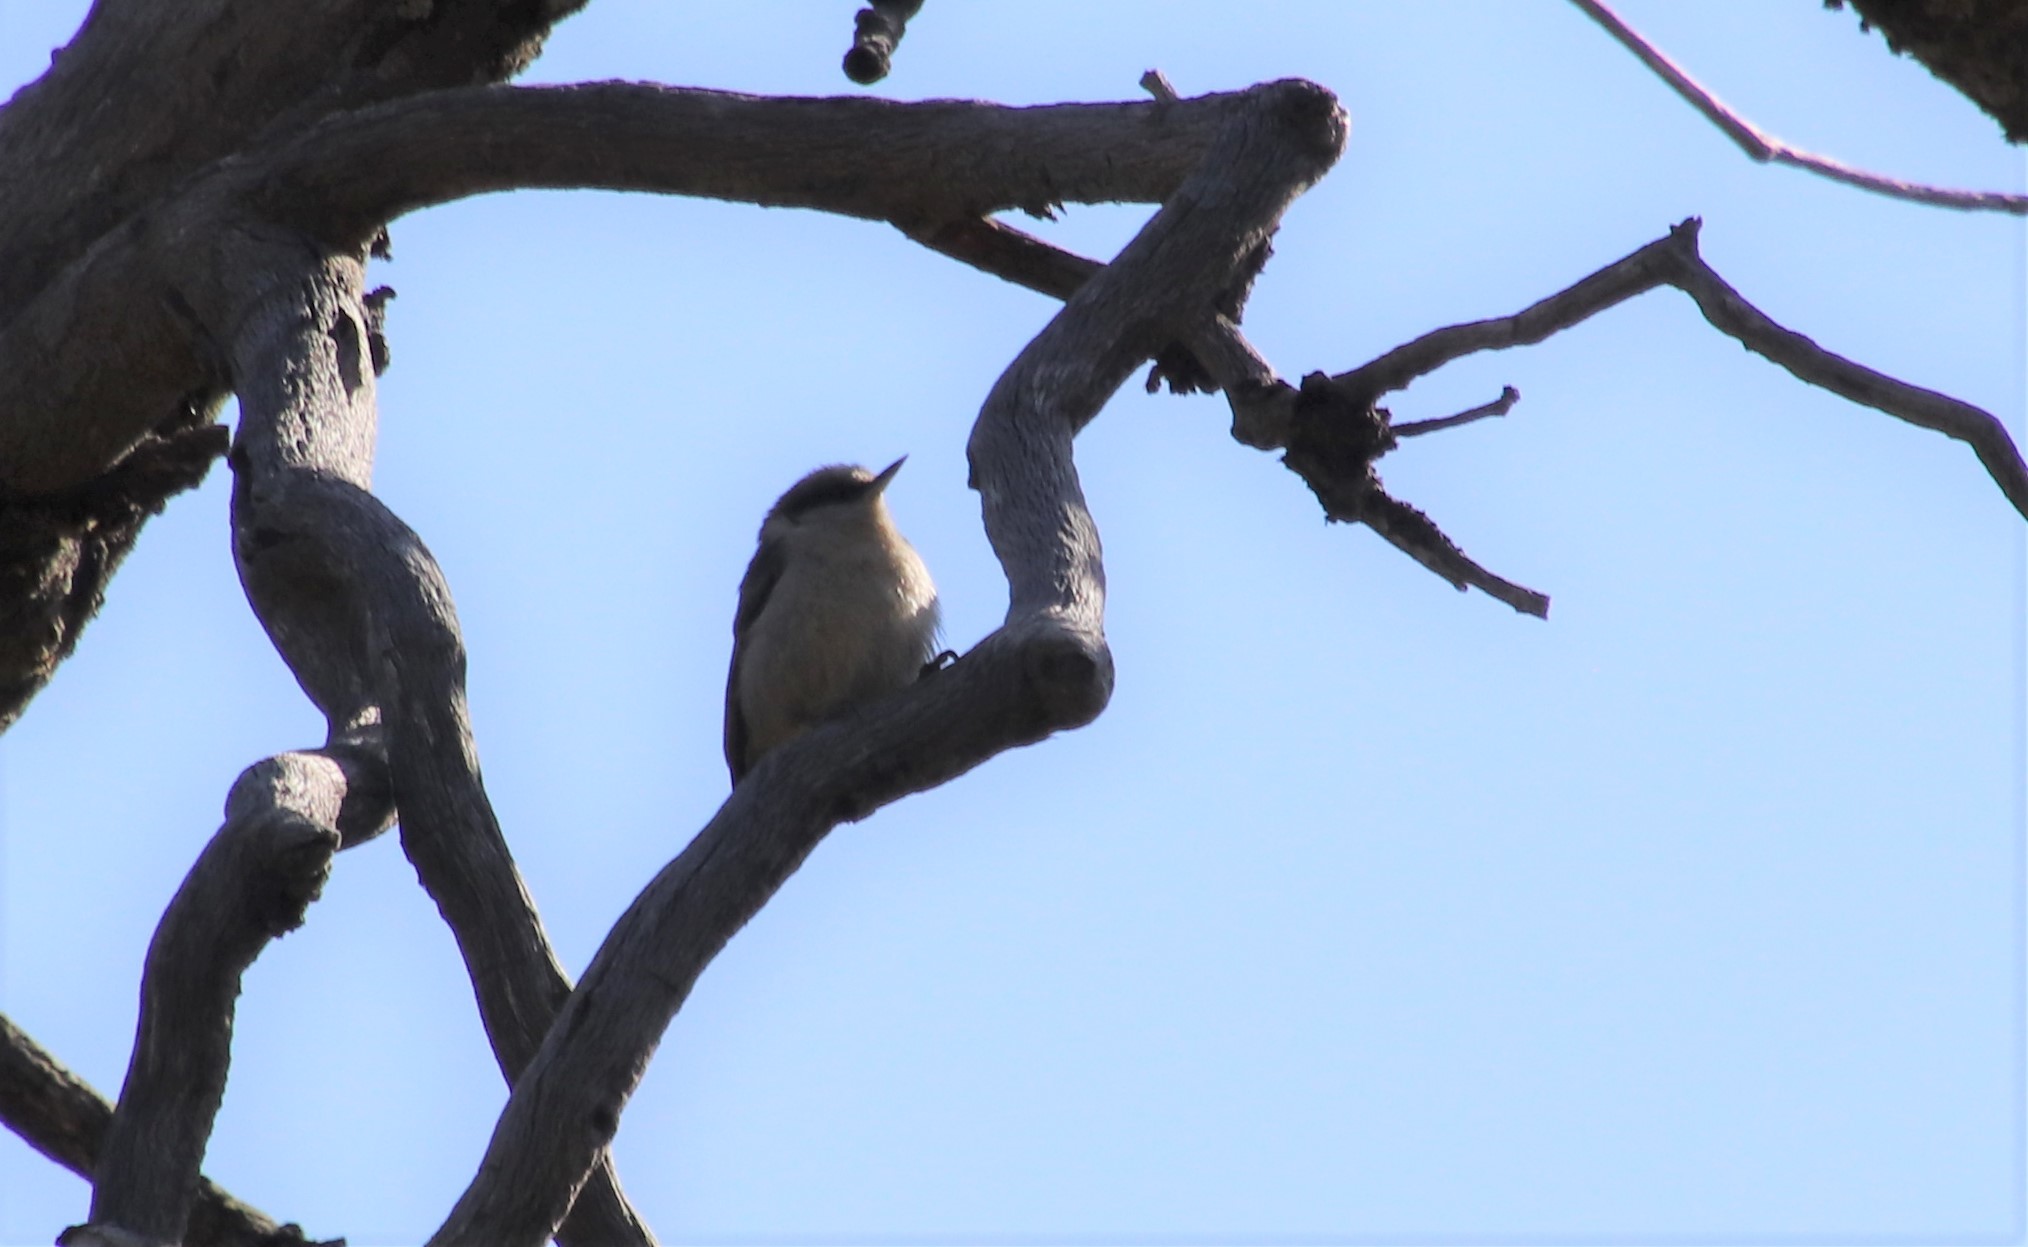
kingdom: Animalia
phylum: Chordata
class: Aves
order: Passeriformes
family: Sittidae
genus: Sitta
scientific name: Sitta pygmaea
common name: Pygmy nuthatch
